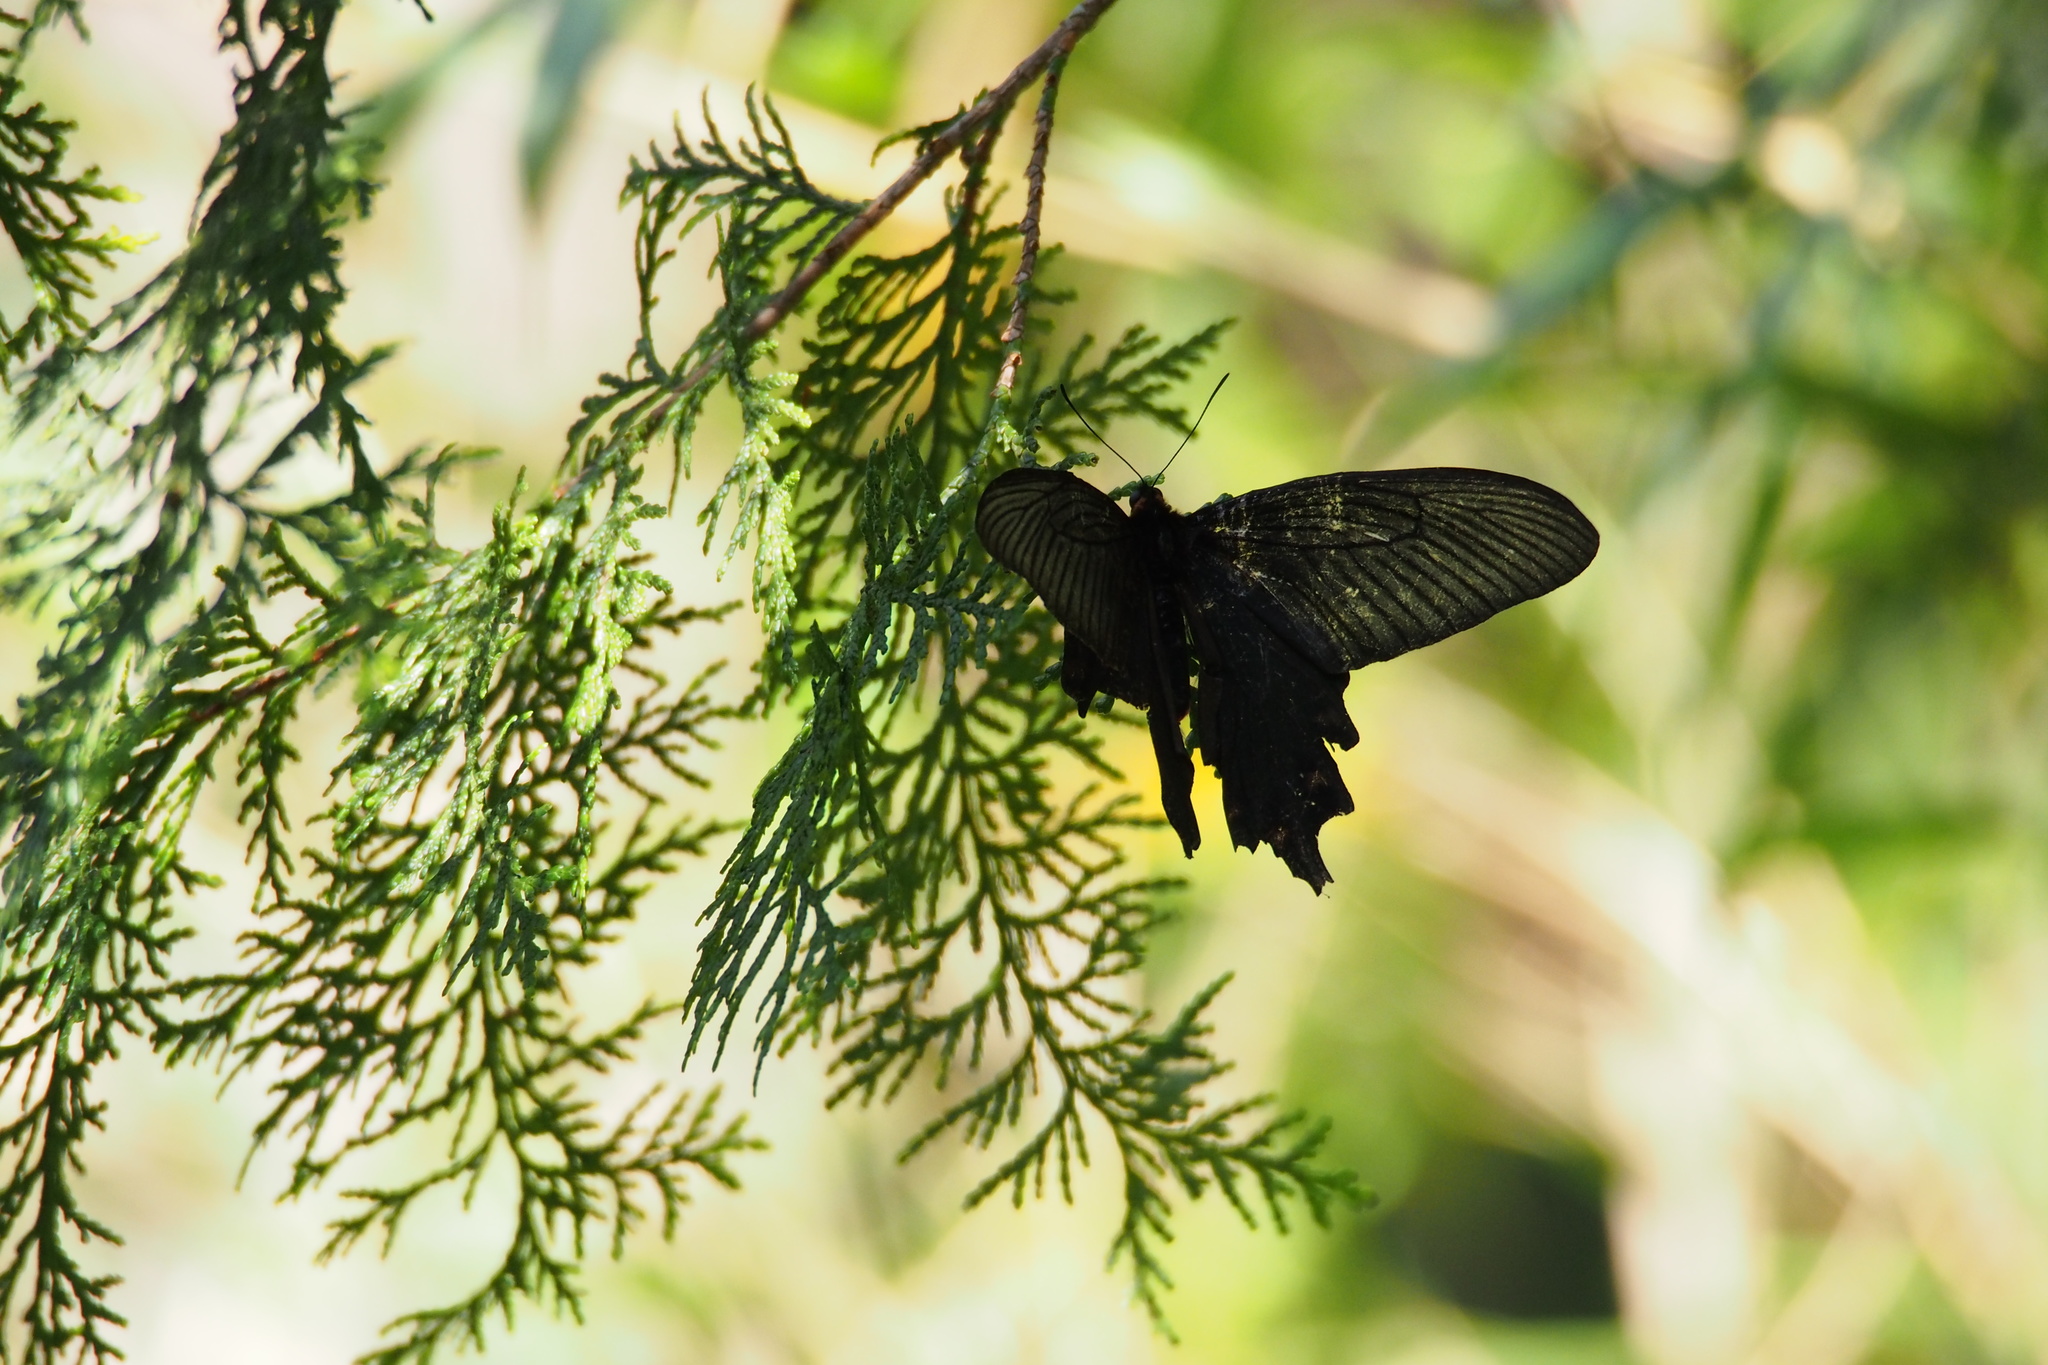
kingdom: Animalia
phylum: Arthropoda
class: Insecta
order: Lepidoptera
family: Papilionidae
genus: Byasa
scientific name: Byasa alcinous
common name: Chinese windmill
